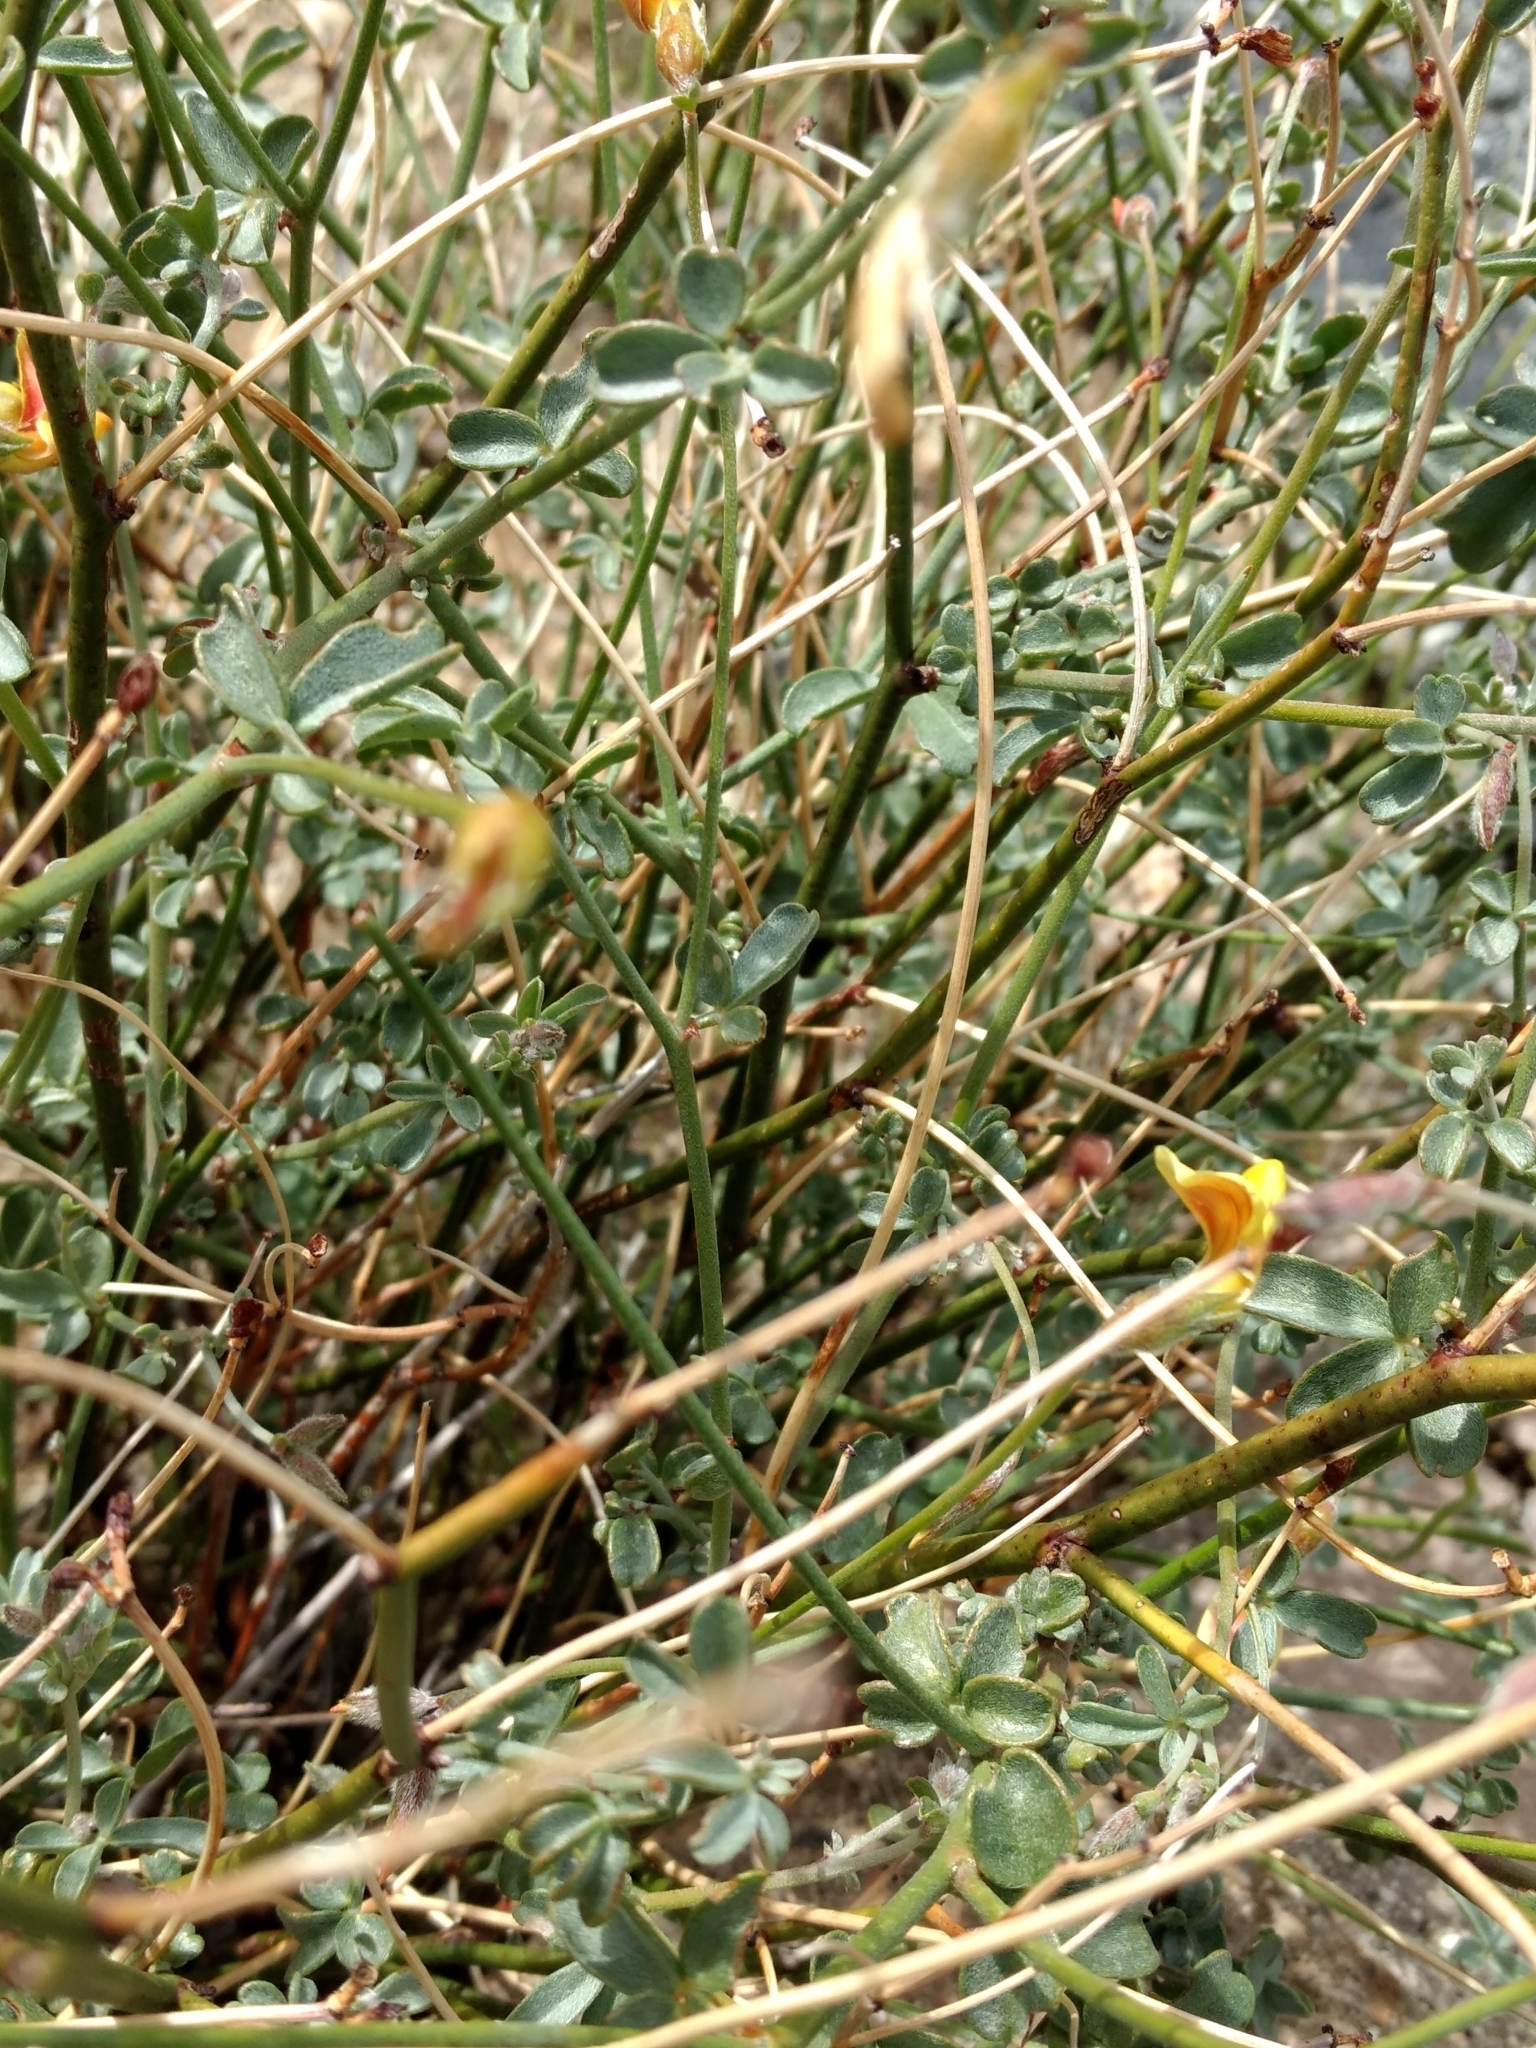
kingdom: Plantae
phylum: Tracheophyta
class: Magnoliopsida
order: Fabales
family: Fabaceae
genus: Acmispon
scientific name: Acmispon rigidus
